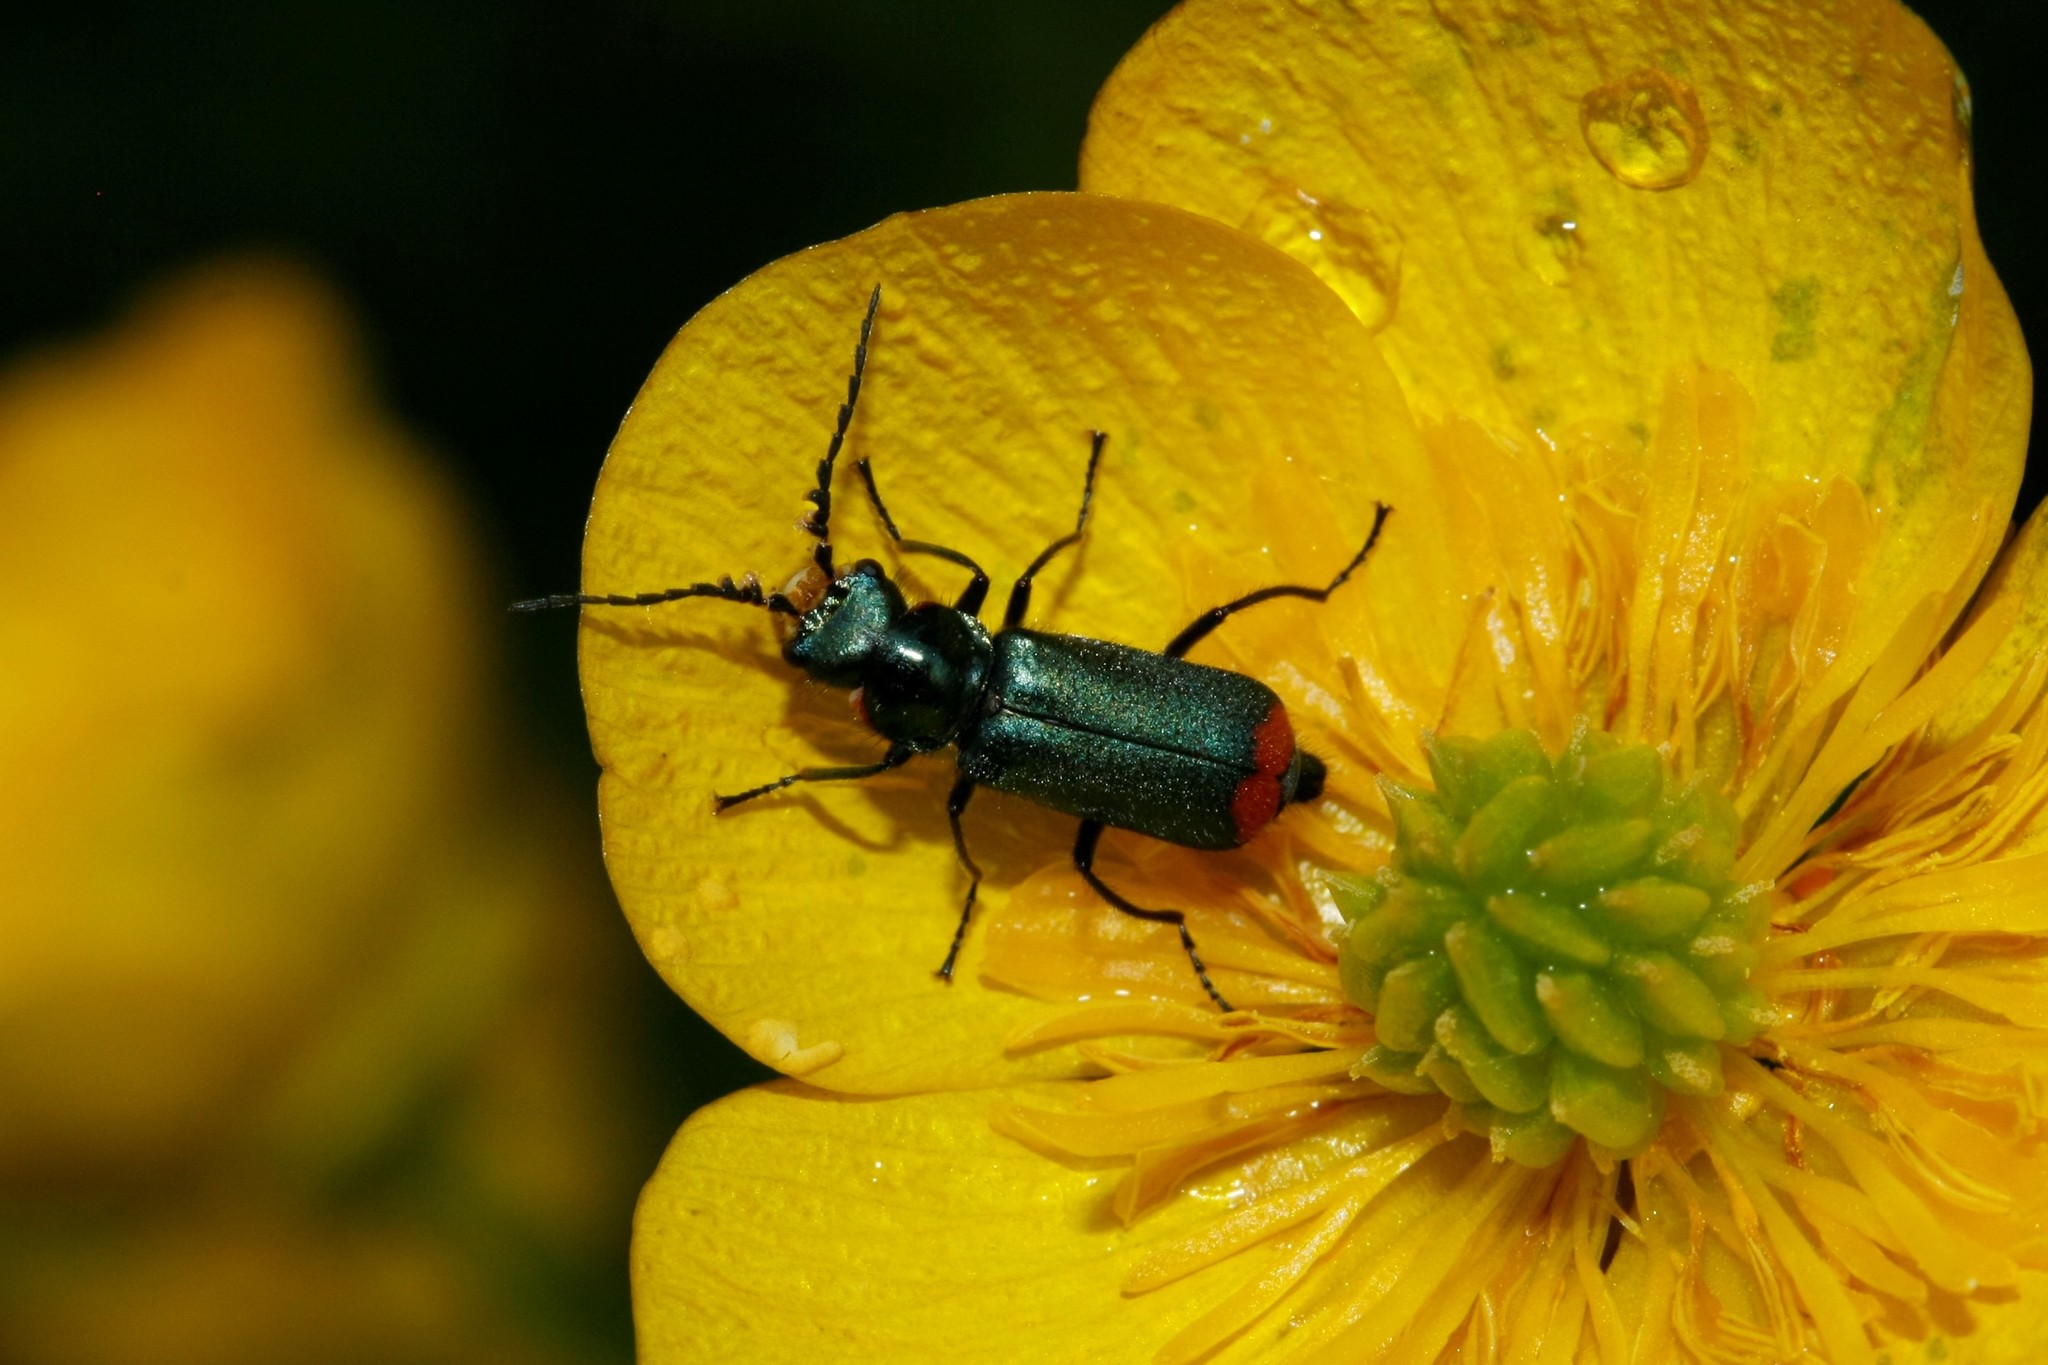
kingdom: Animalia
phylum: Arthropoda
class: Insecta
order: Coleoptera
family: Melyridae
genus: Malachius
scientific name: Malachius bipustulatus
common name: Malachite beetle
